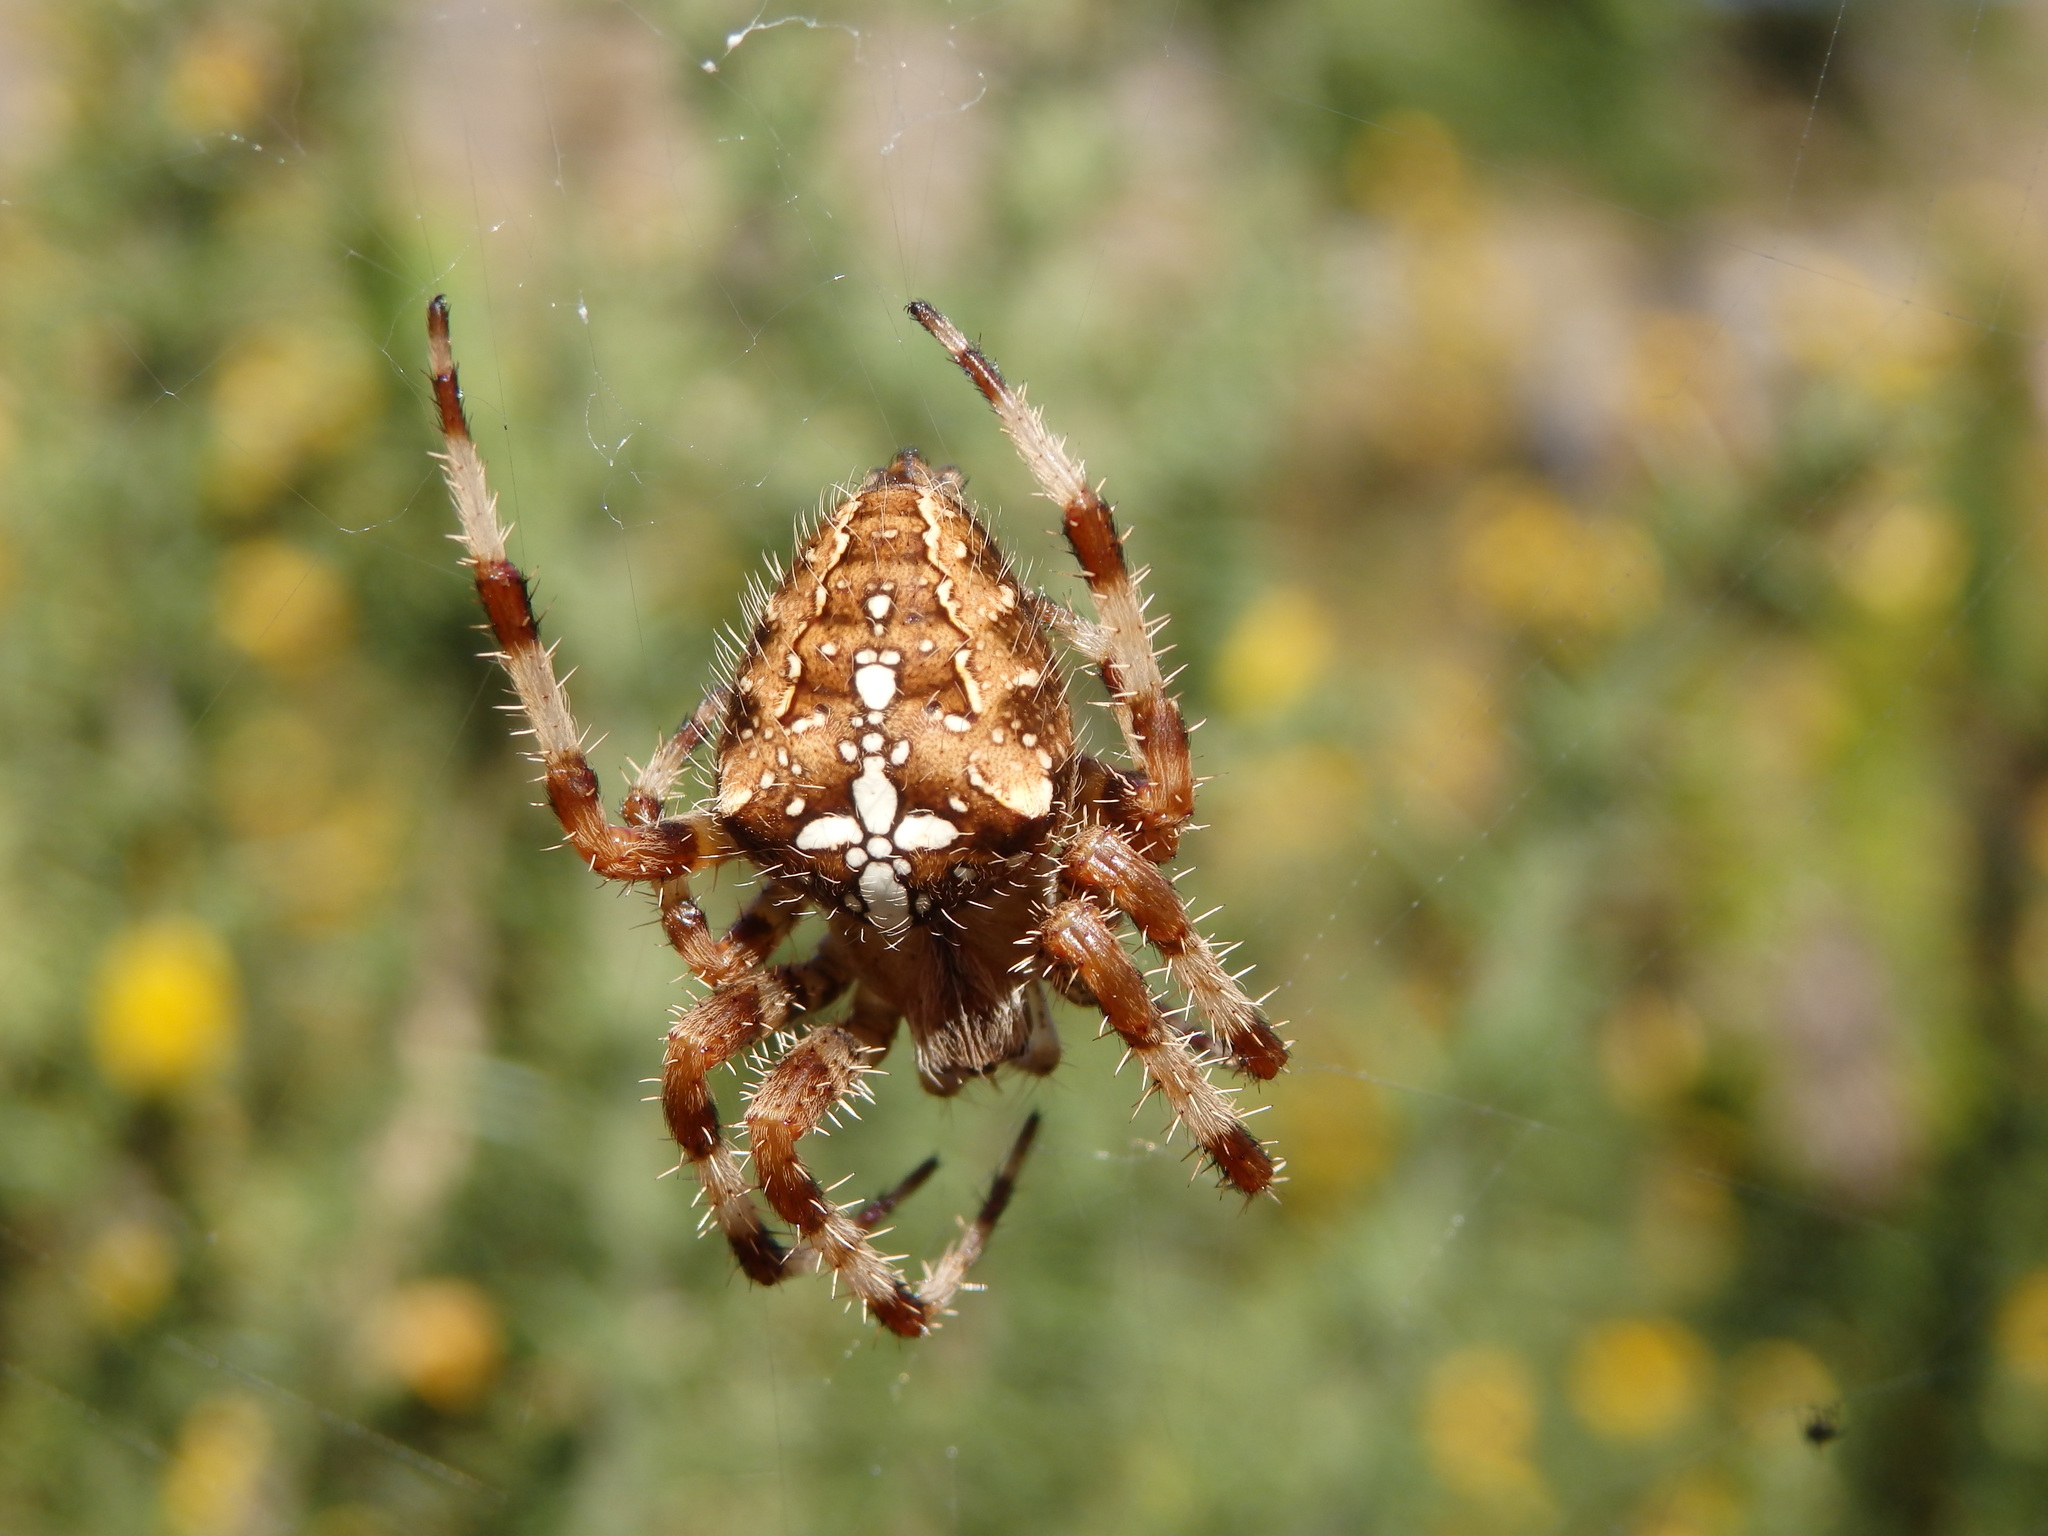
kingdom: Animalia
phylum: Arthropoda
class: Arachnida
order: Araneae
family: Araneidae
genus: Araneus
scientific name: Araneus diadematus
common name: Cross orbweaver
